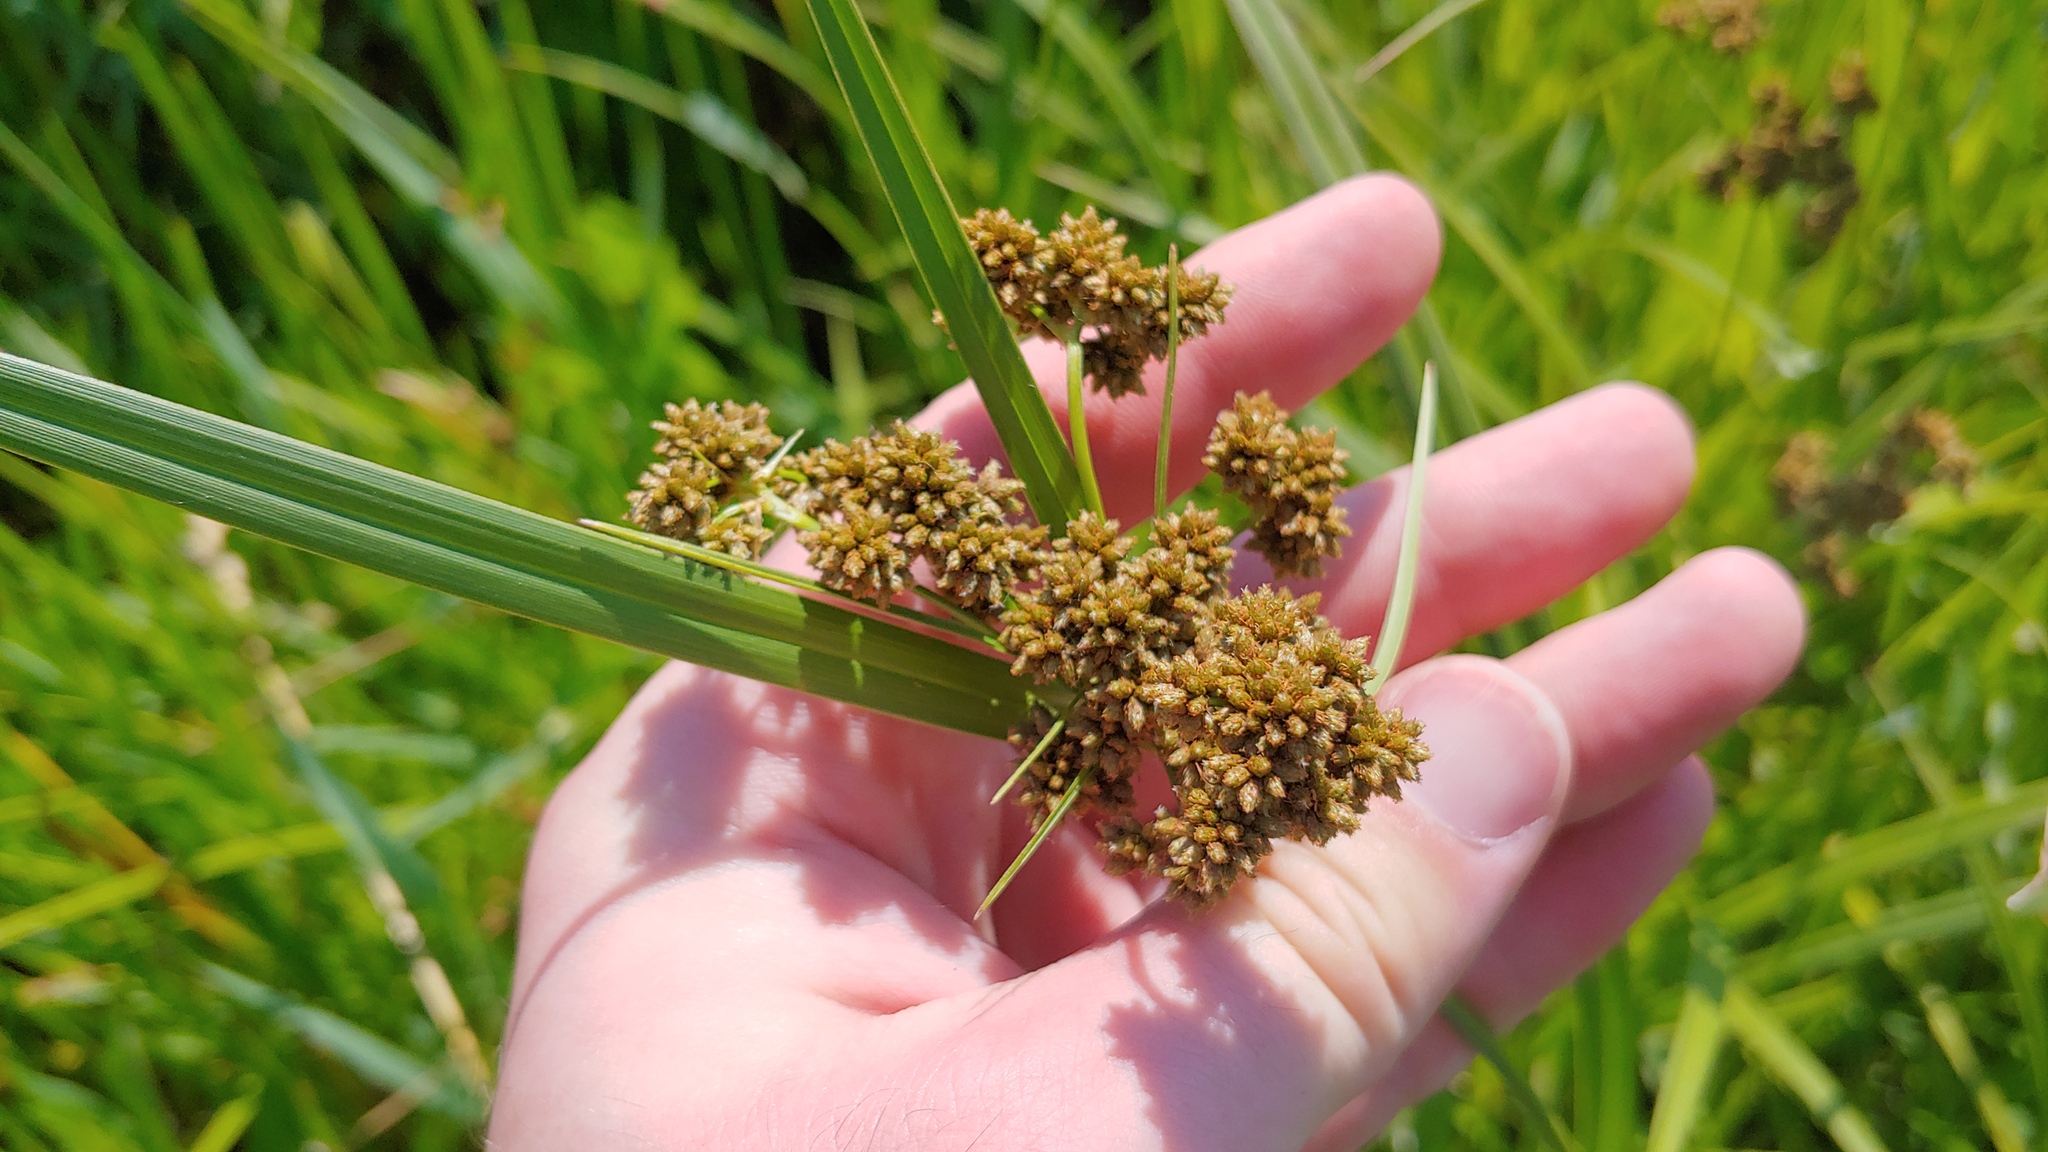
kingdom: Plantae
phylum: Tracheophyta
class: Liliopsida
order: Poales
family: Cyperaceae
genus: Scirpus
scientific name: Scirpus atrovirens
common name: Black bulrush
